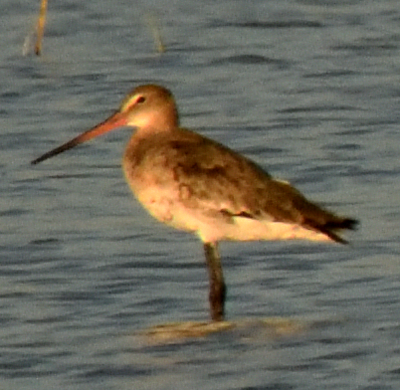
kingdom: Animalia
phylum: Chordata
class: Aves
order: Charadriiformes
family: Scolopacidae
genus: Limosa
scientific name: Limosa limosa
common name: Black-tailed godwit
